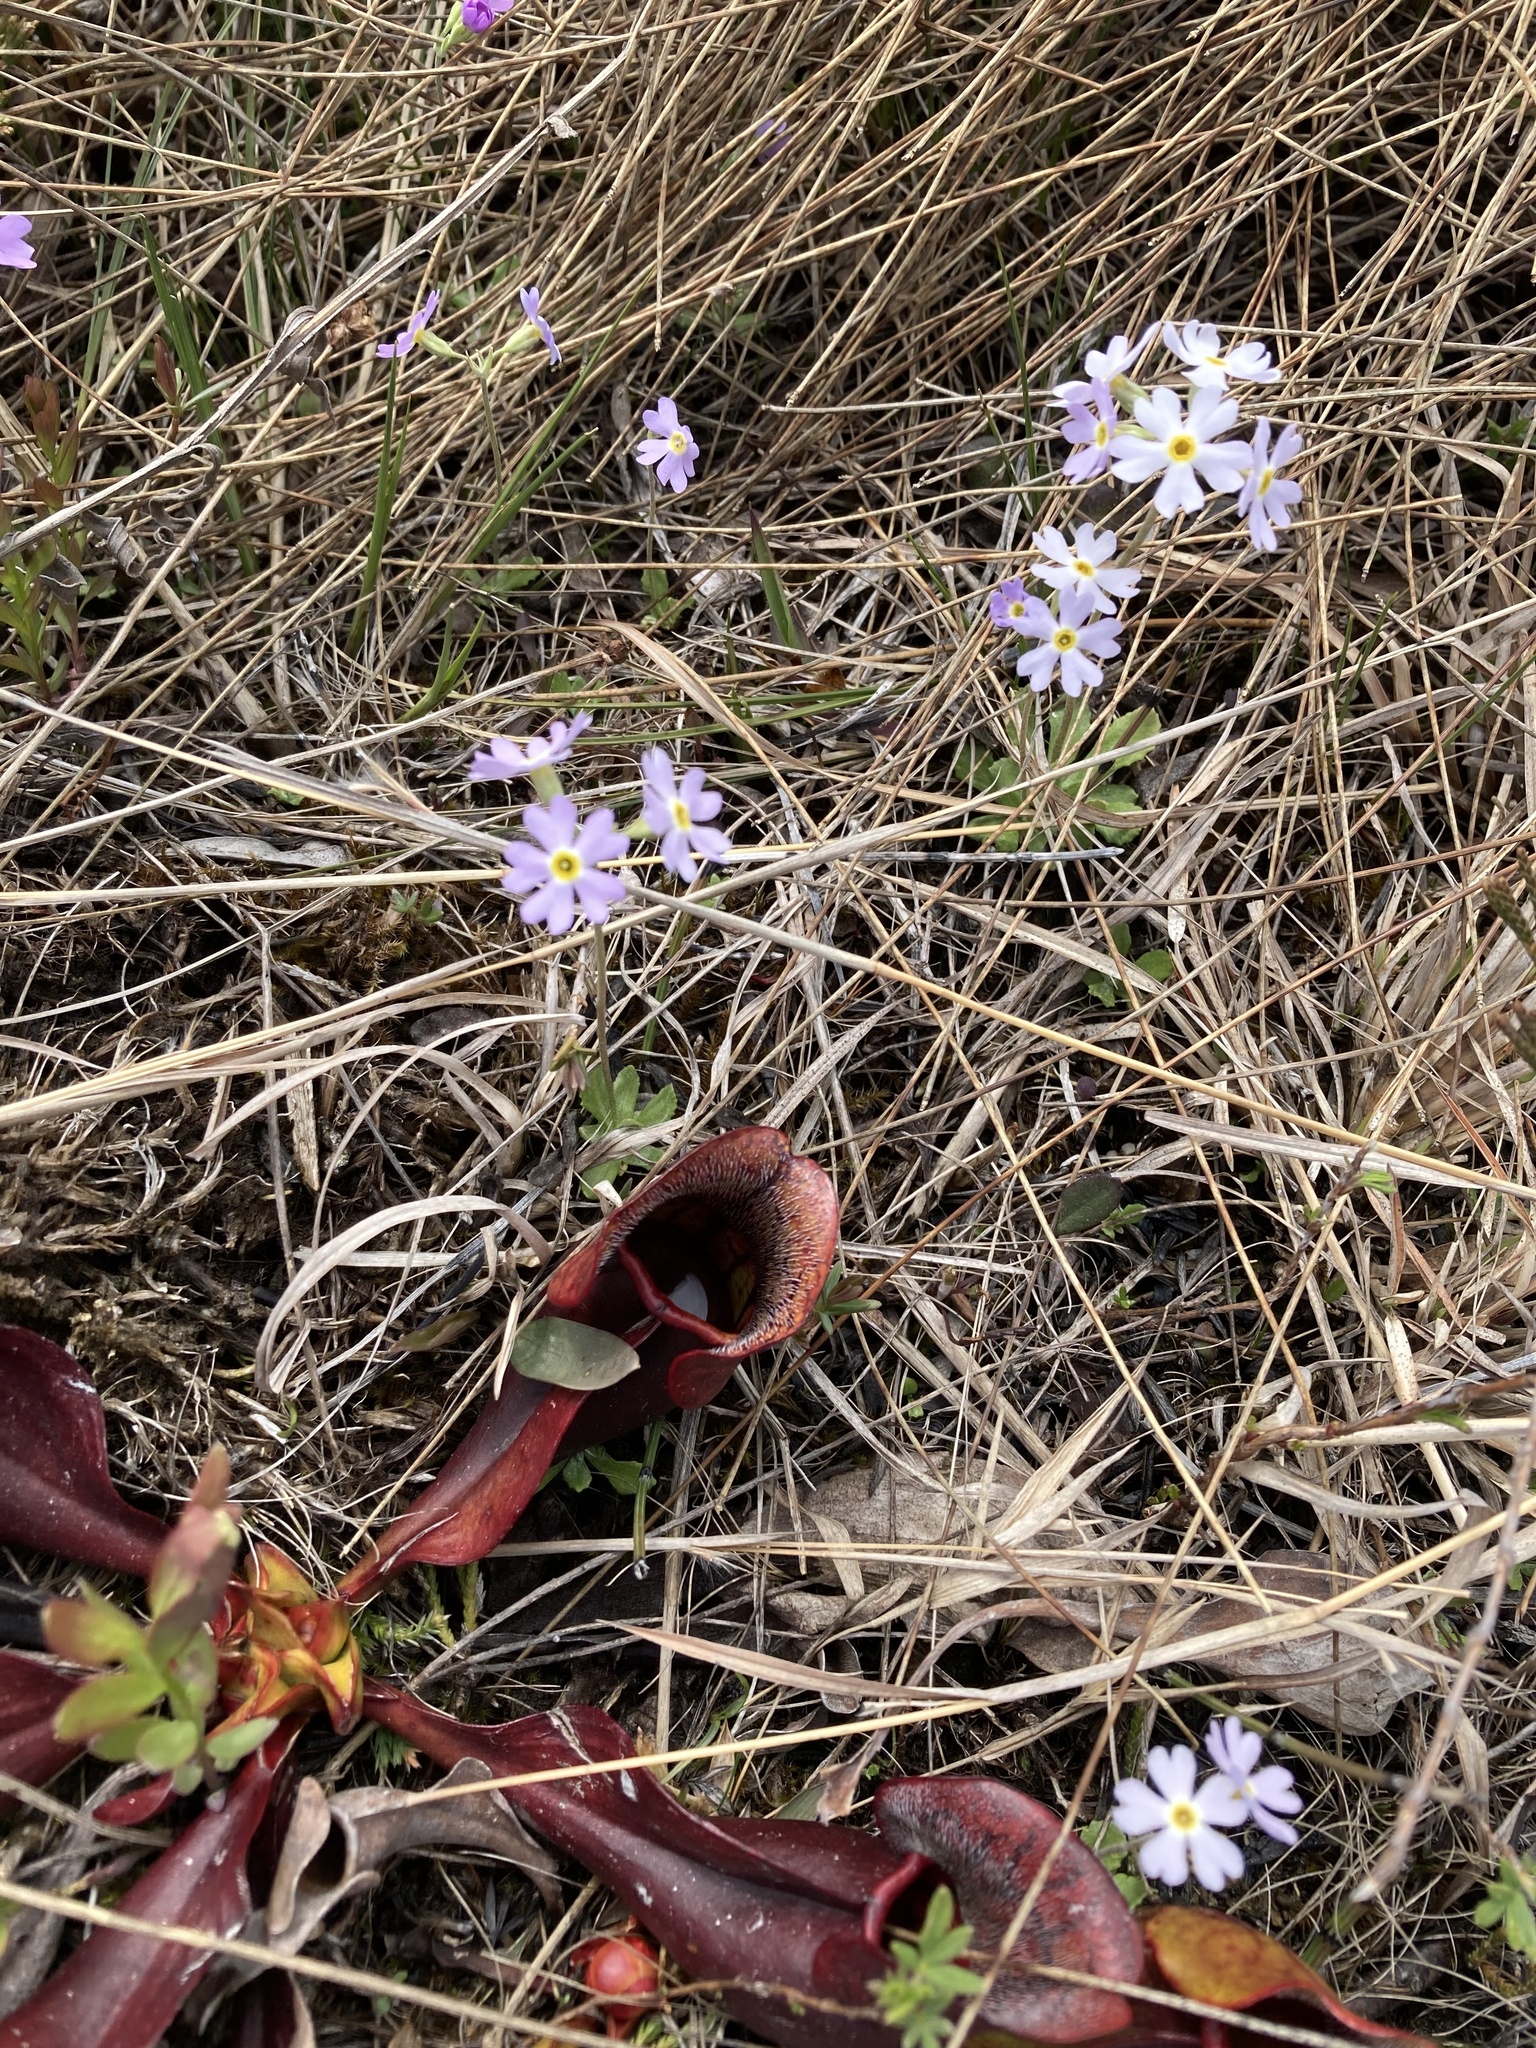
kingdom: Plantae
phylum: Tracheophyta
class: Magnoliopsida
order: Ericales
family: Sarraceniaceae
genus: Sarracenia
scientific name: Sarracenia purpurea
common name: Pitcherplant
